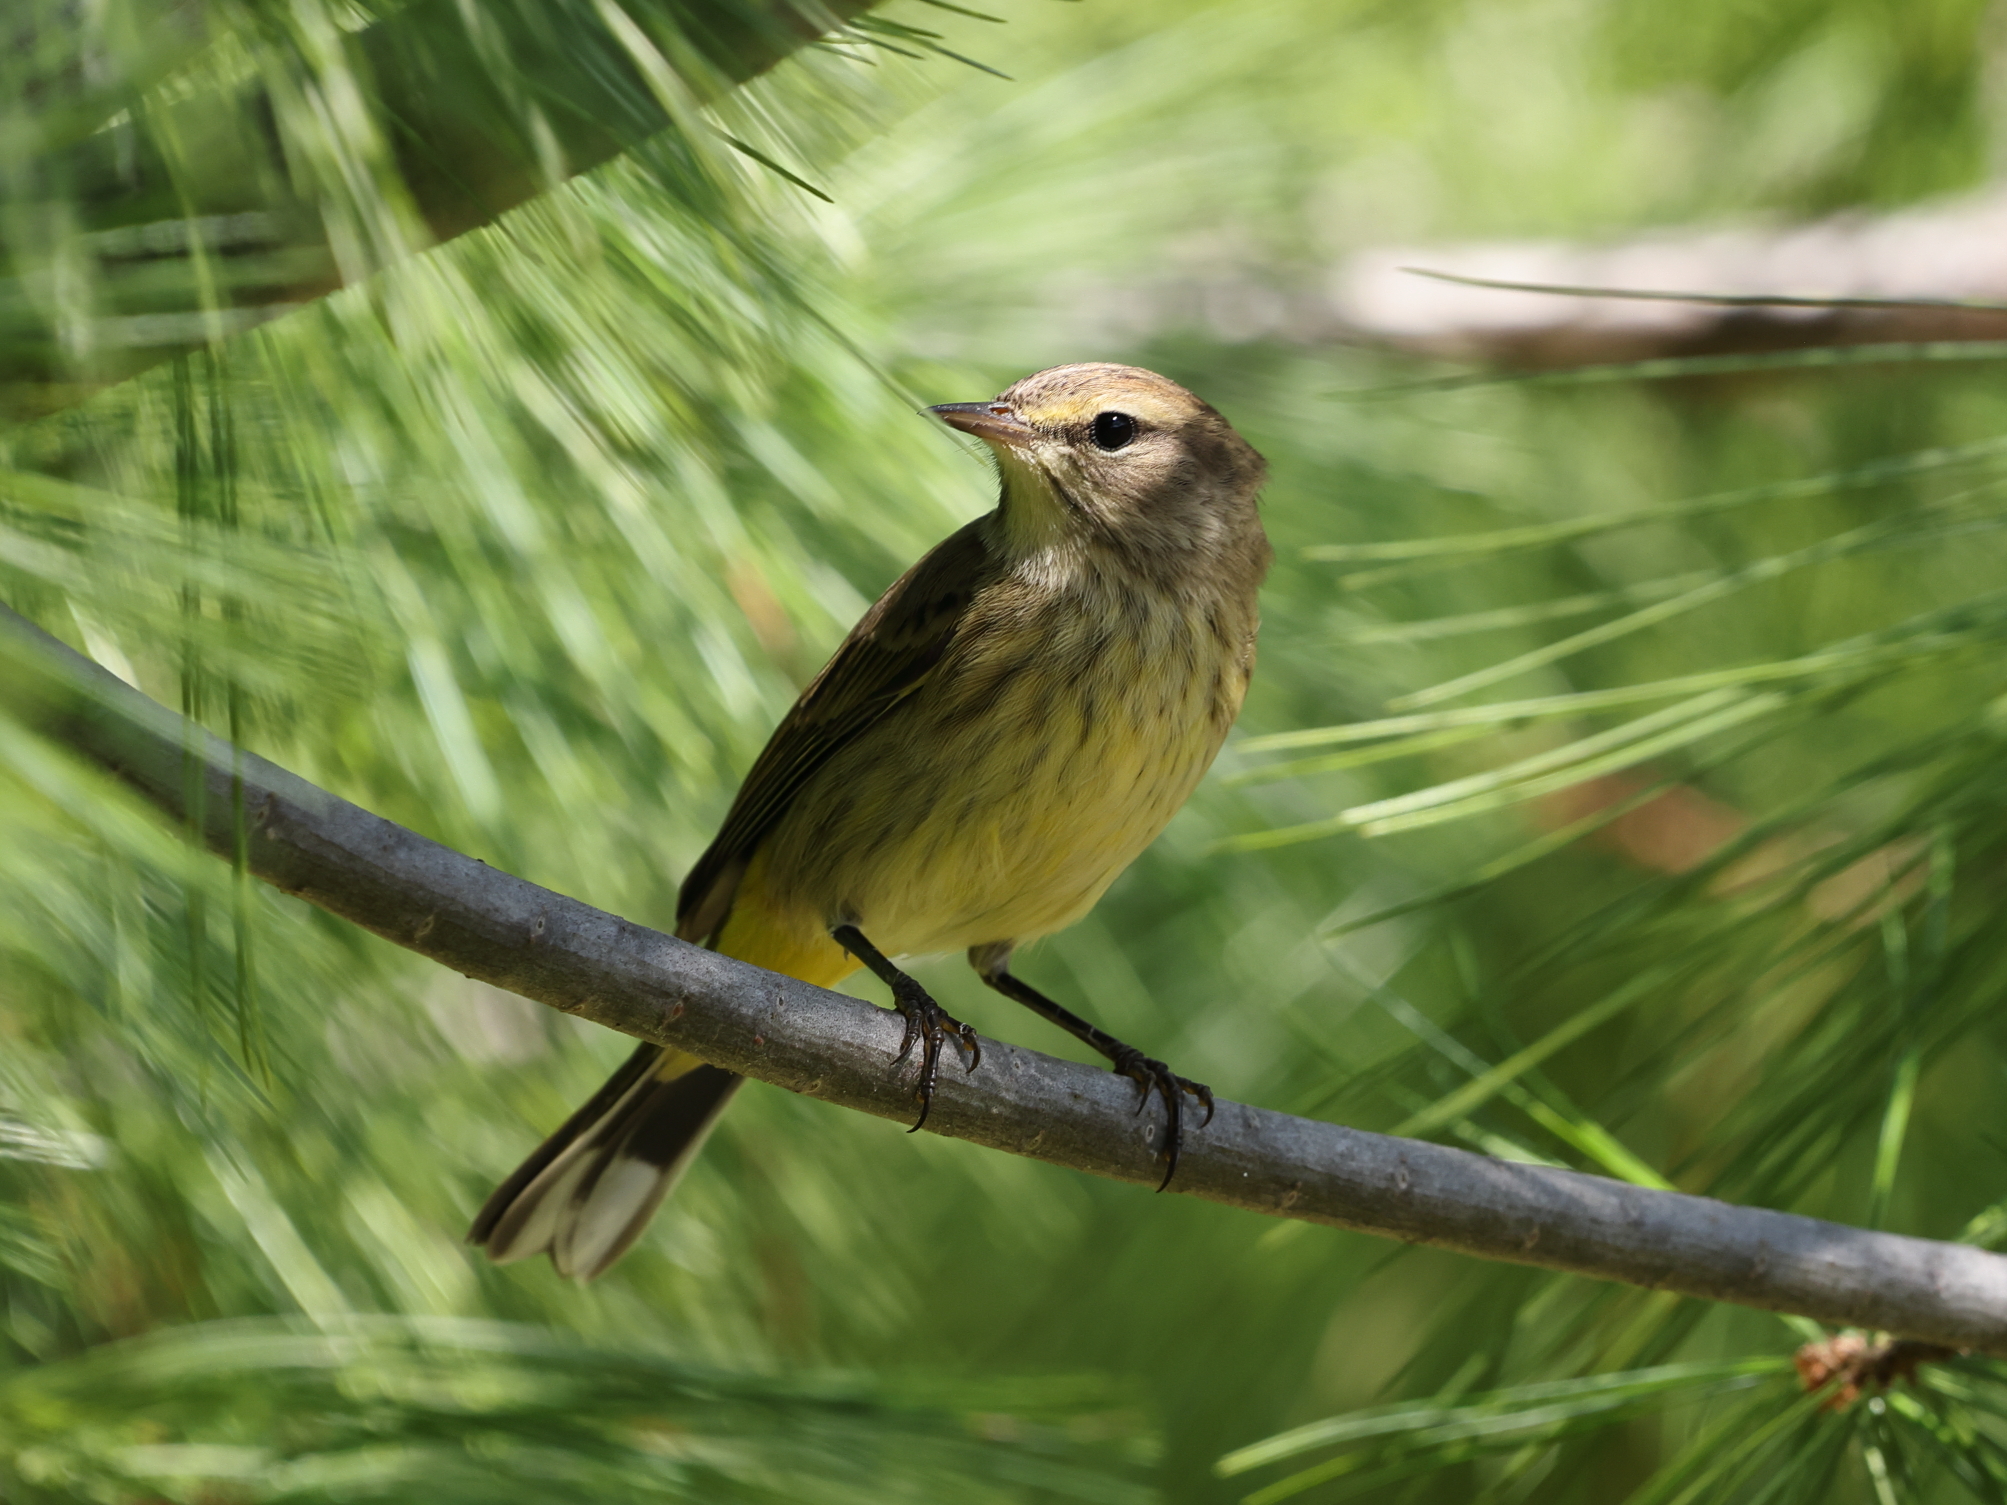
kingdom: Animalia
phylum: Chordata
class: Aves
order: Passeriformes
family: Parulidae
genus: Setophaga
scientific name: Setophaga palmarum
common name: Palm warbler
